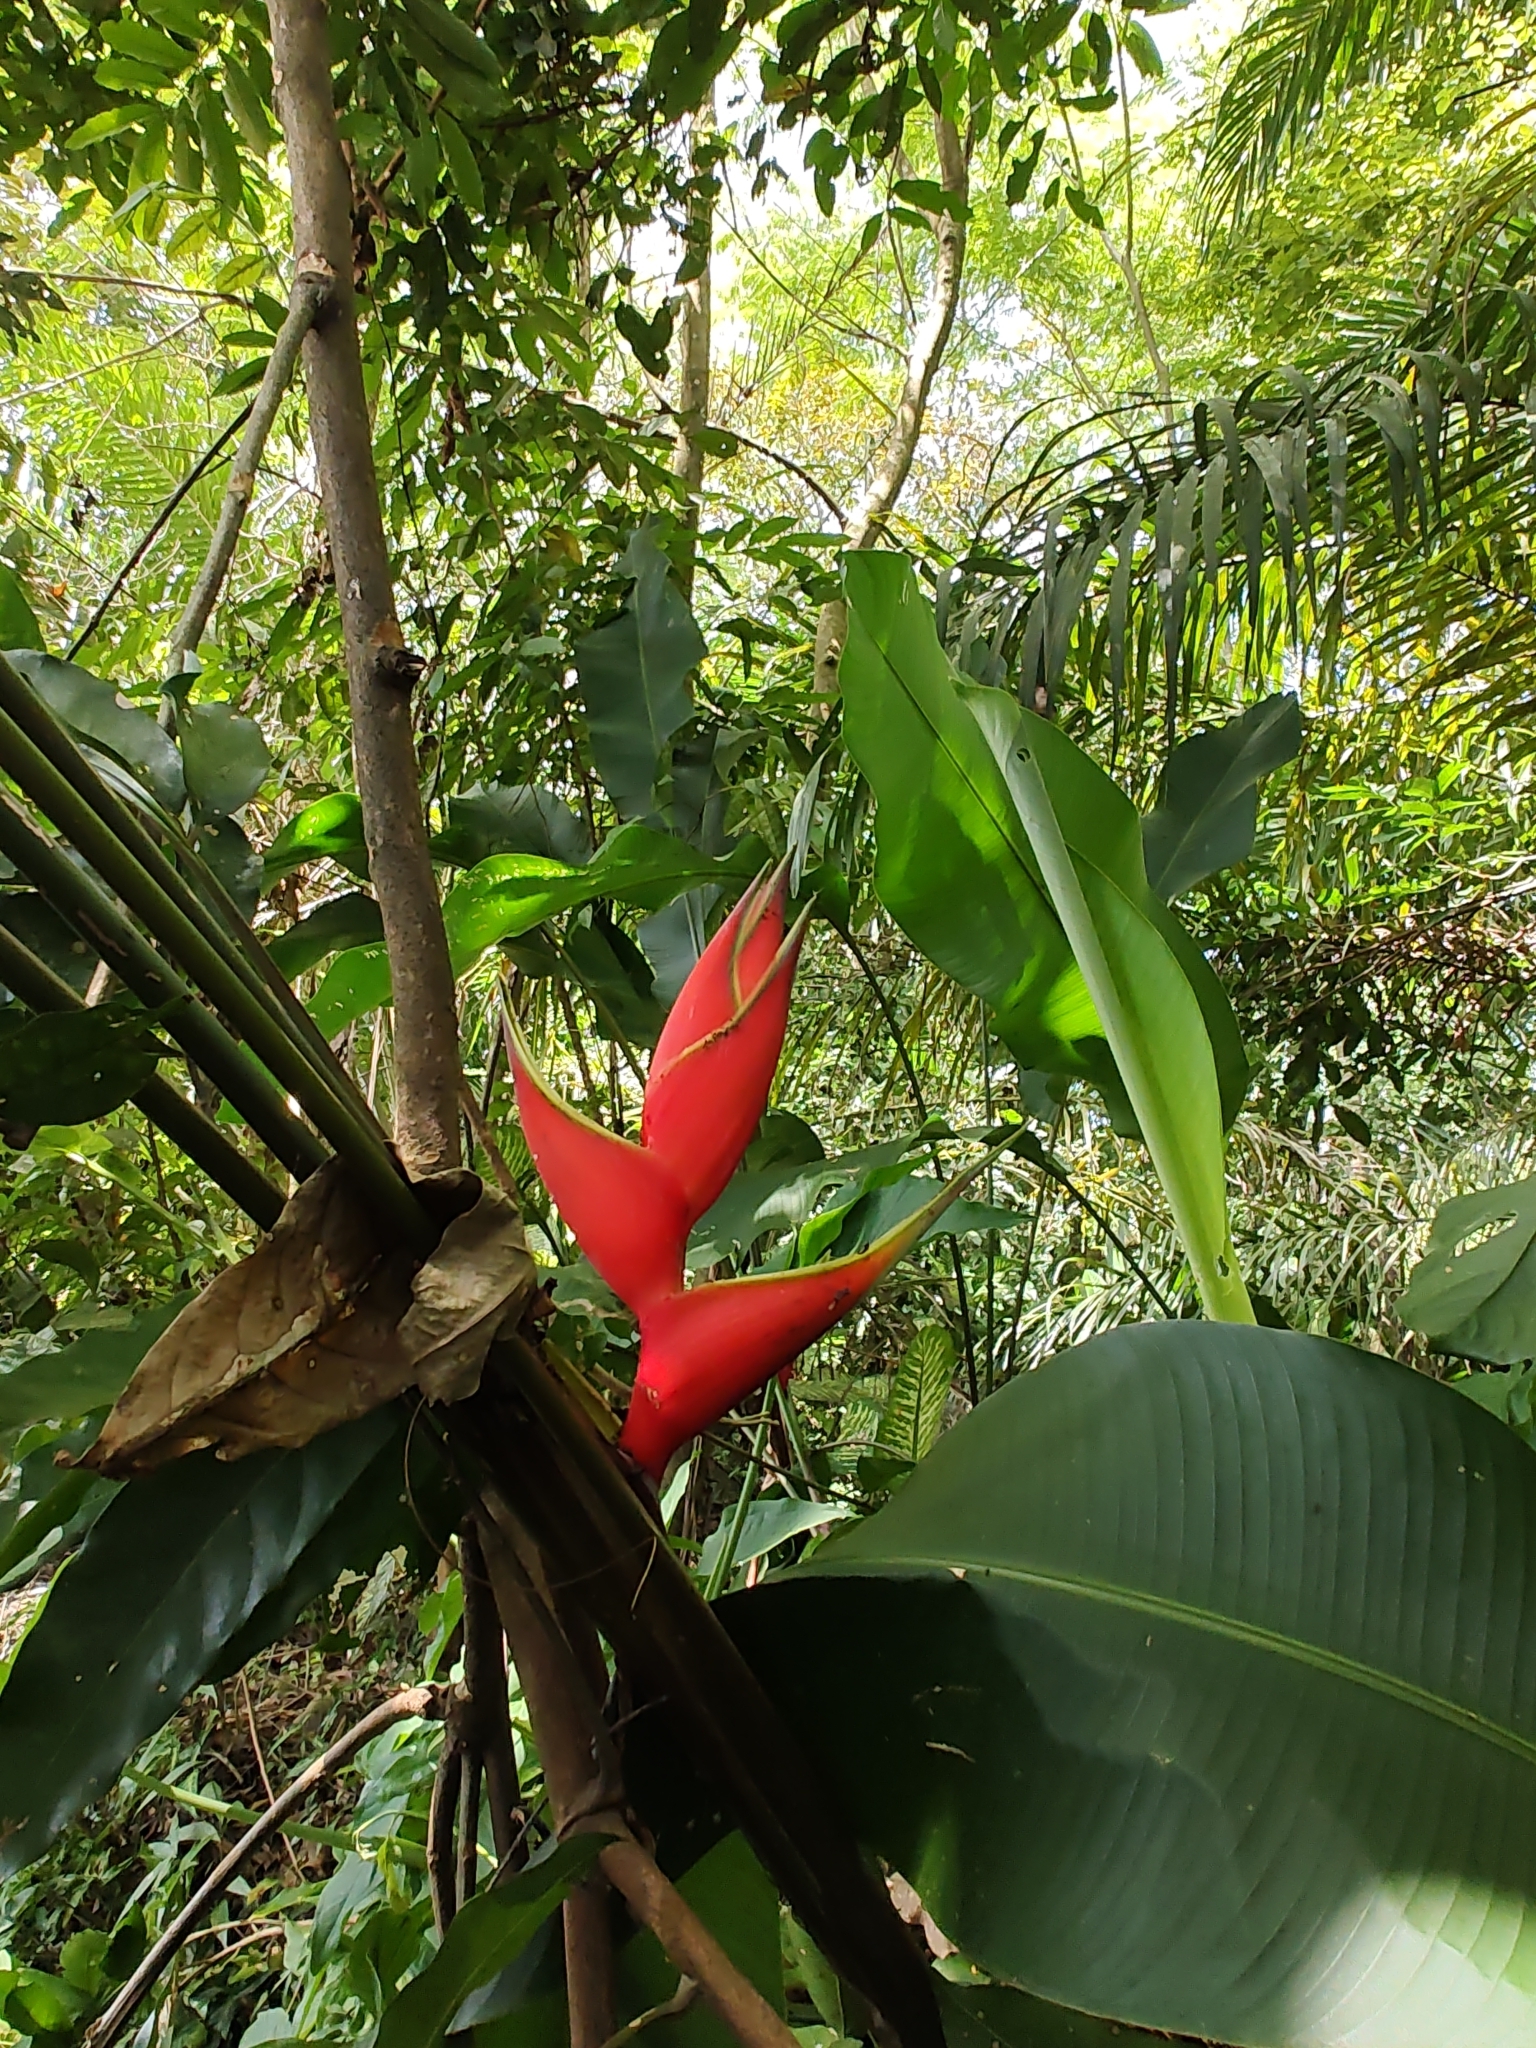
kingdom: Plantae
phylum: Tracheophyta
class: Liliopsida
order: Zingiberales
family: Heliconiaceae
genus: Heliconia
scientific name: Heliconia bihai
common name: Macaw flower
